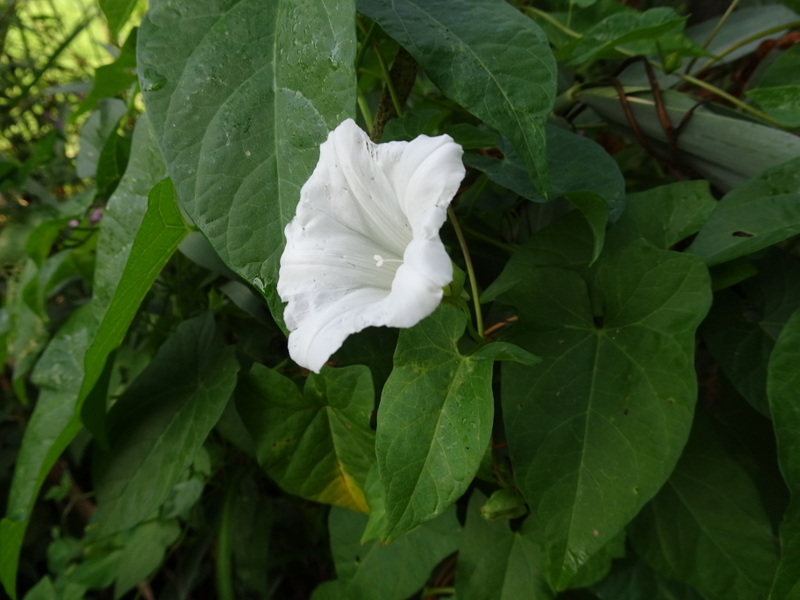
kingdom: Plantae
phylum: Tracheophyta
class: Magnoliopsida
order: Solanales
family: Convolvulaceae
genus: Calystegia
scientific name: Calystegia sepium
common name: Hedge bindweed
